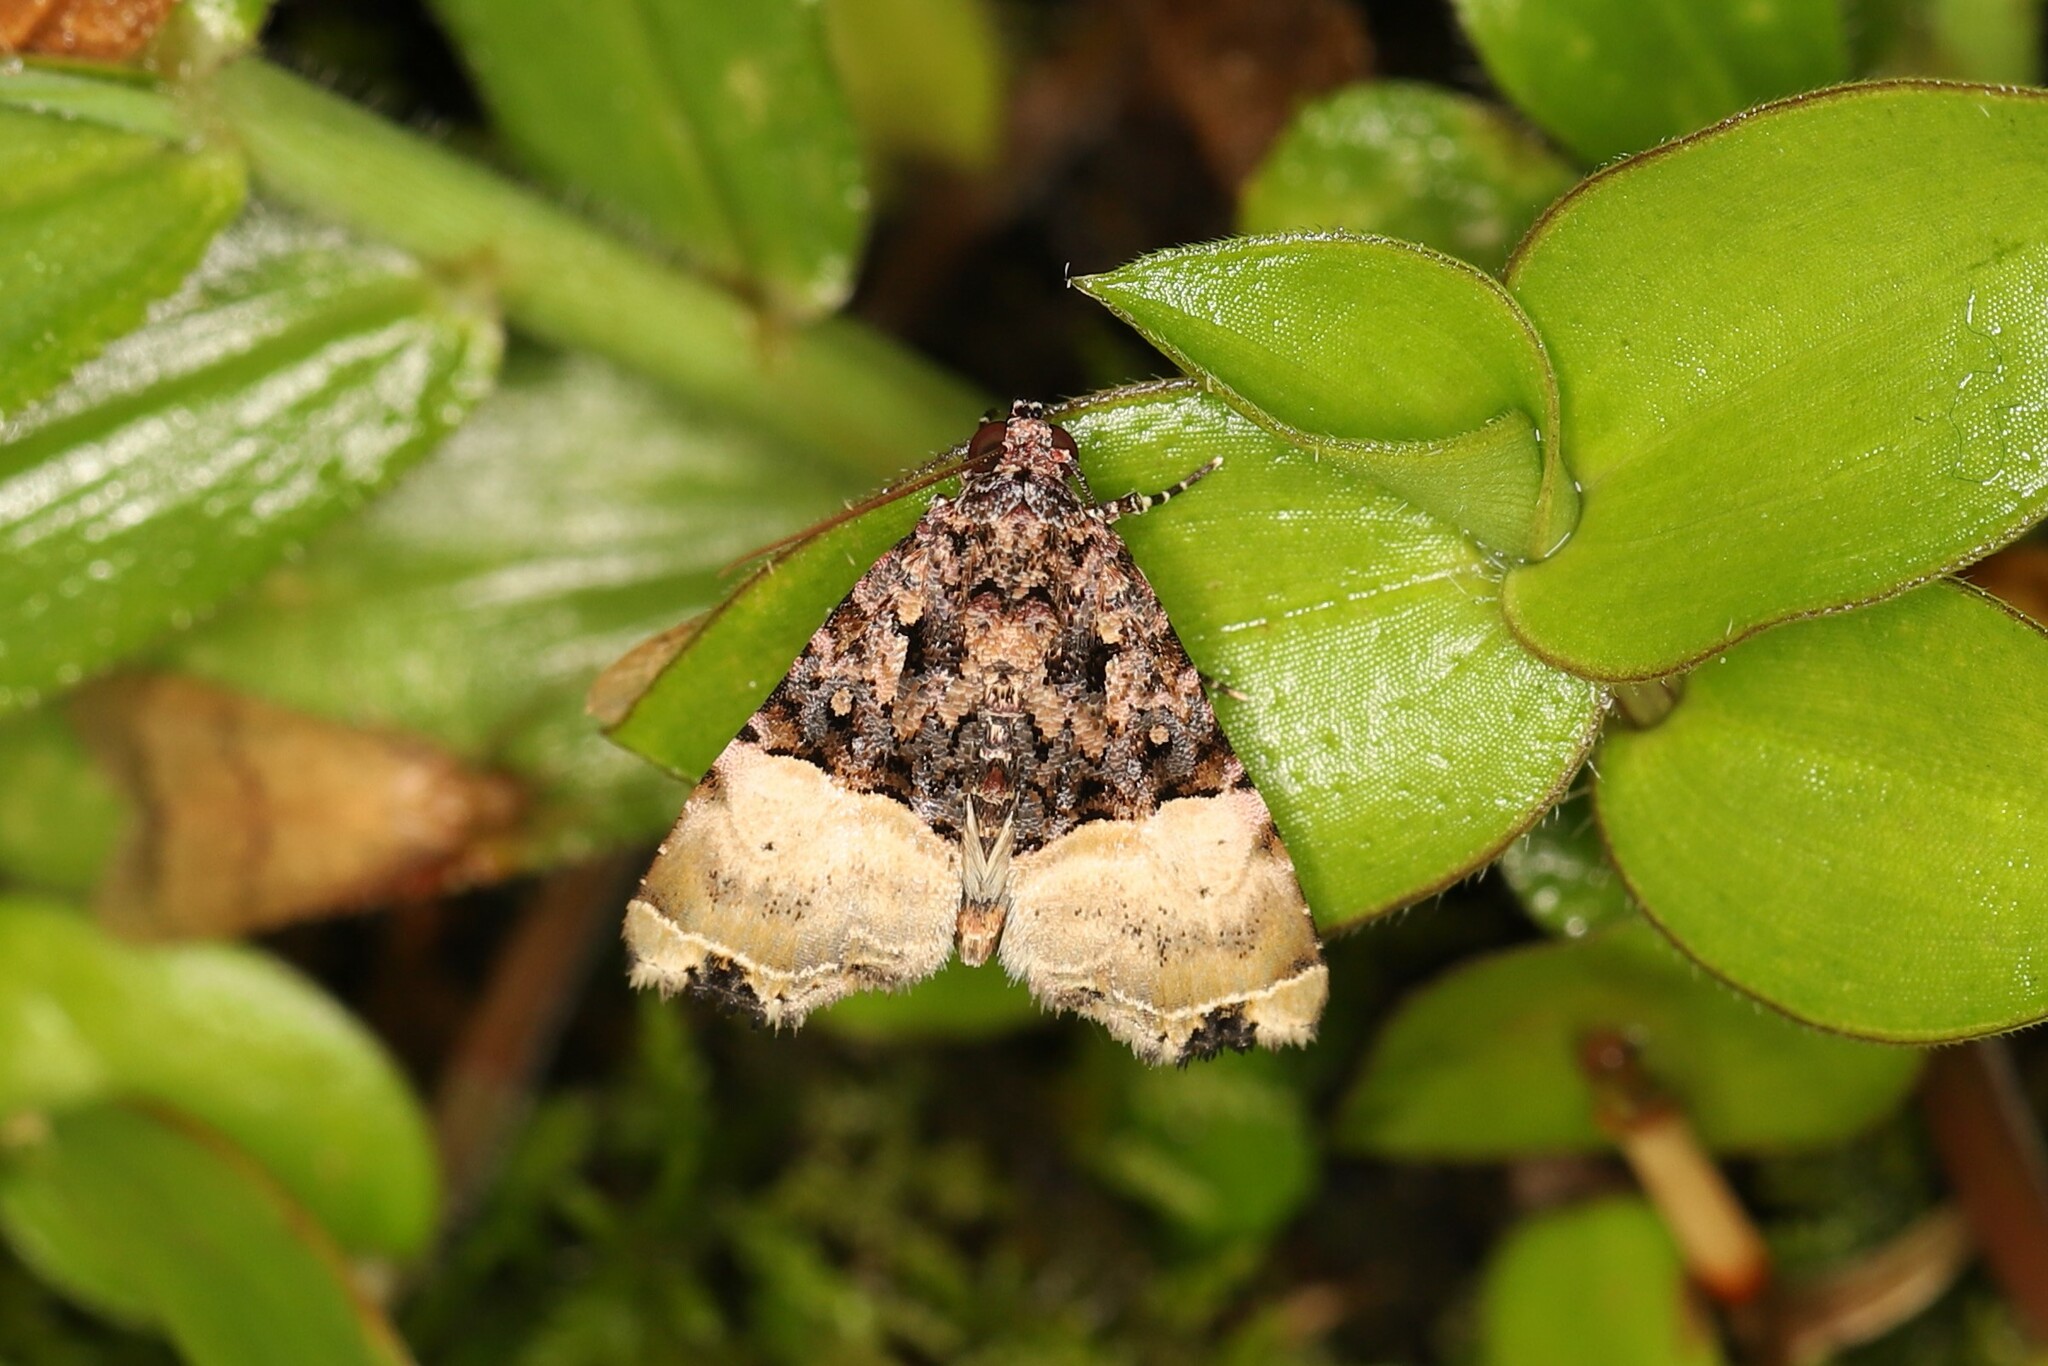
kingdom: Animalia
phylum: Arthropoda
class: Insecta
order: Lepidoptera
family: Noctuidae
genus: Lithacodia
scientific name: Lithacodia editha
